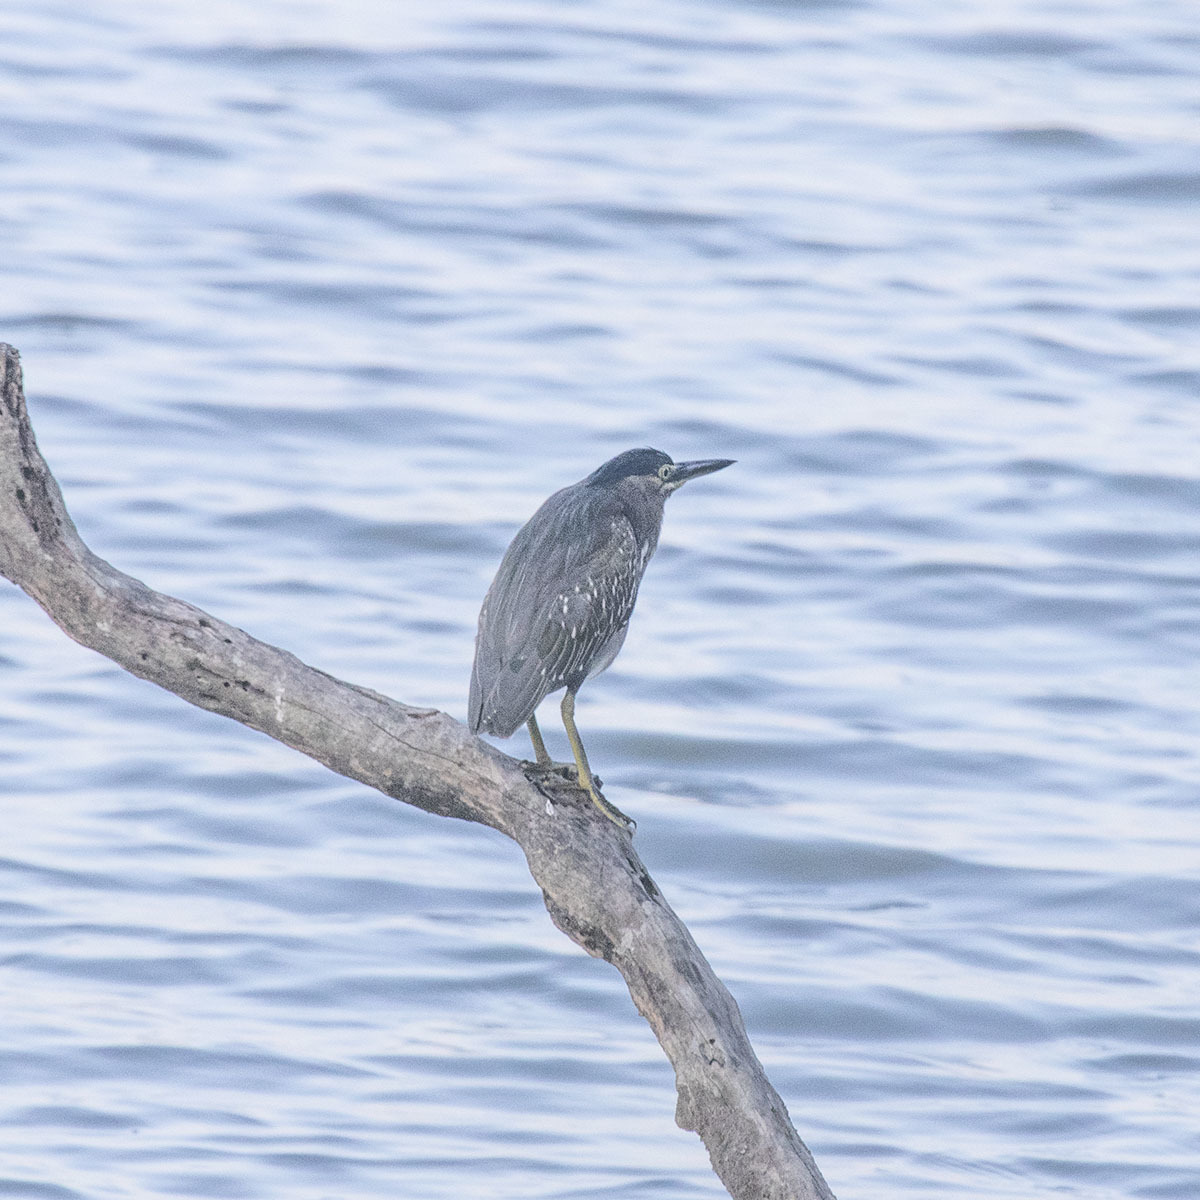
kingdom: Animalia
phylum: Chordata
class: Aves
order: Pelecaniformes
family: Ardeidae
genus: Butorides
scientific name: Butorides striata
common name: Striated heron
